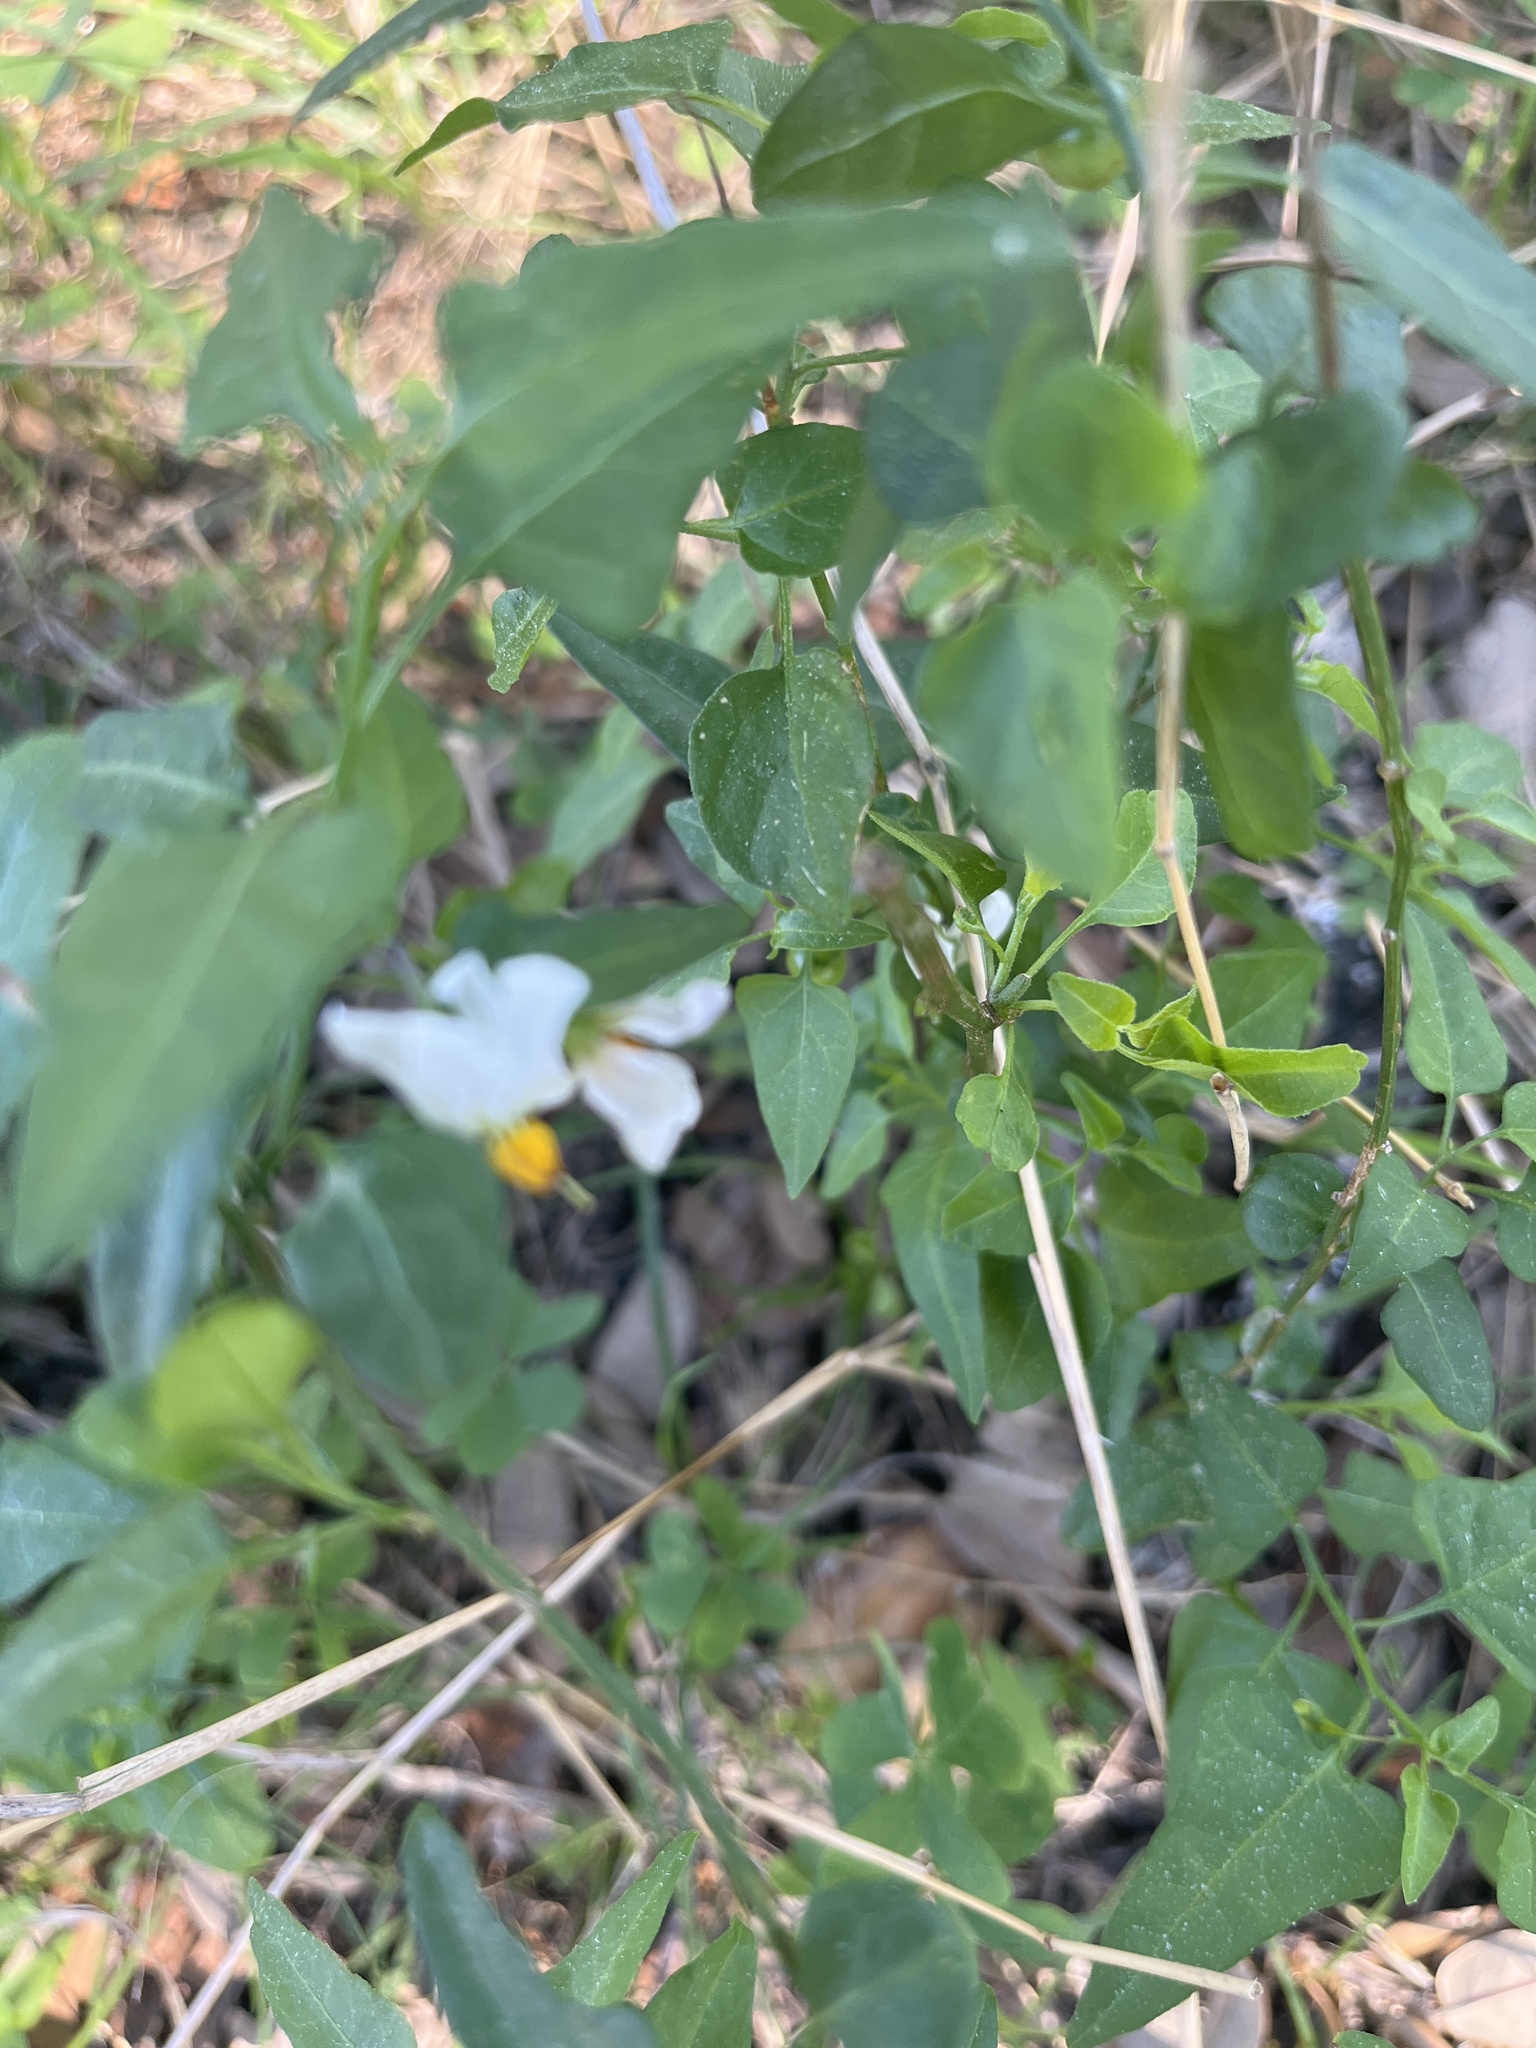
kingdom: Plantae
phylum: Tracheophyta
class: Magnoliopsida
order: Solanales
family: Solanaceae
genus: Solanum
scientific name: Solanum triquetrum
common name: Texas nightshade
